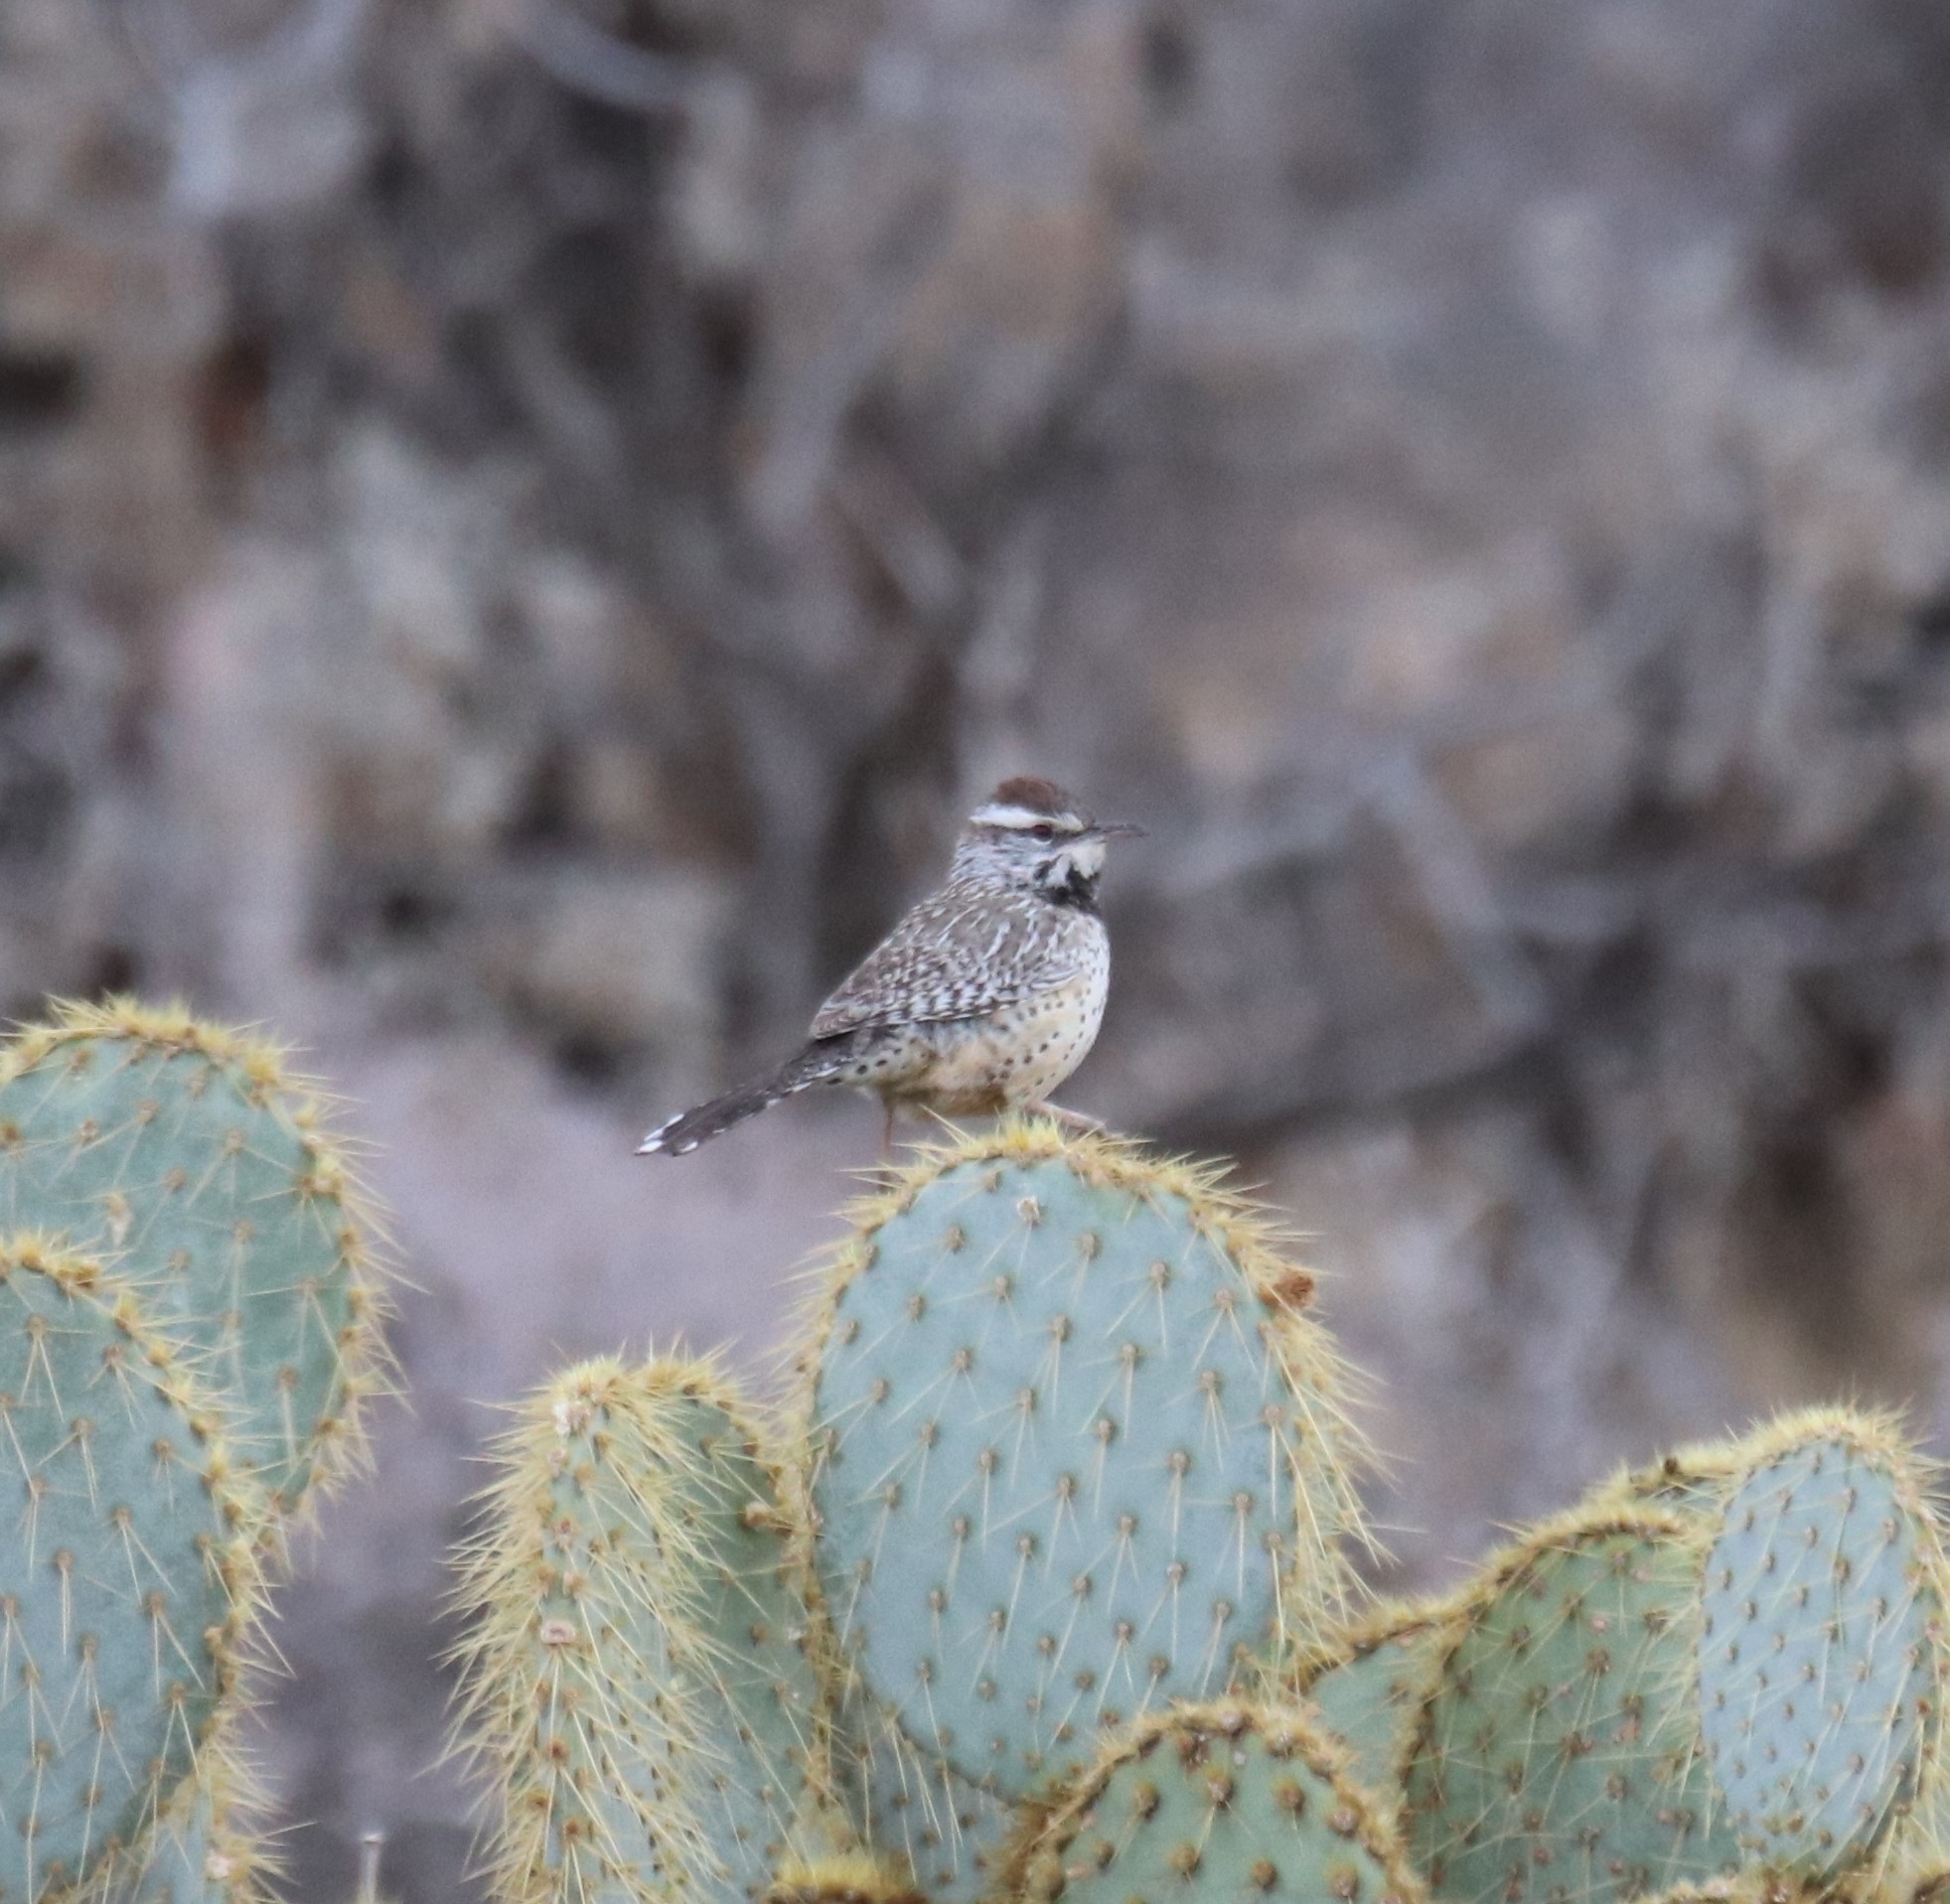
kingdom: Animalia
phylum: Chordata
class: Aves
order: Passeriformes
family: Troglodytidae
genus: Campylorhynchus
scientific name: Campylorhynchus brunneicapillus
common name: Cactus wren
